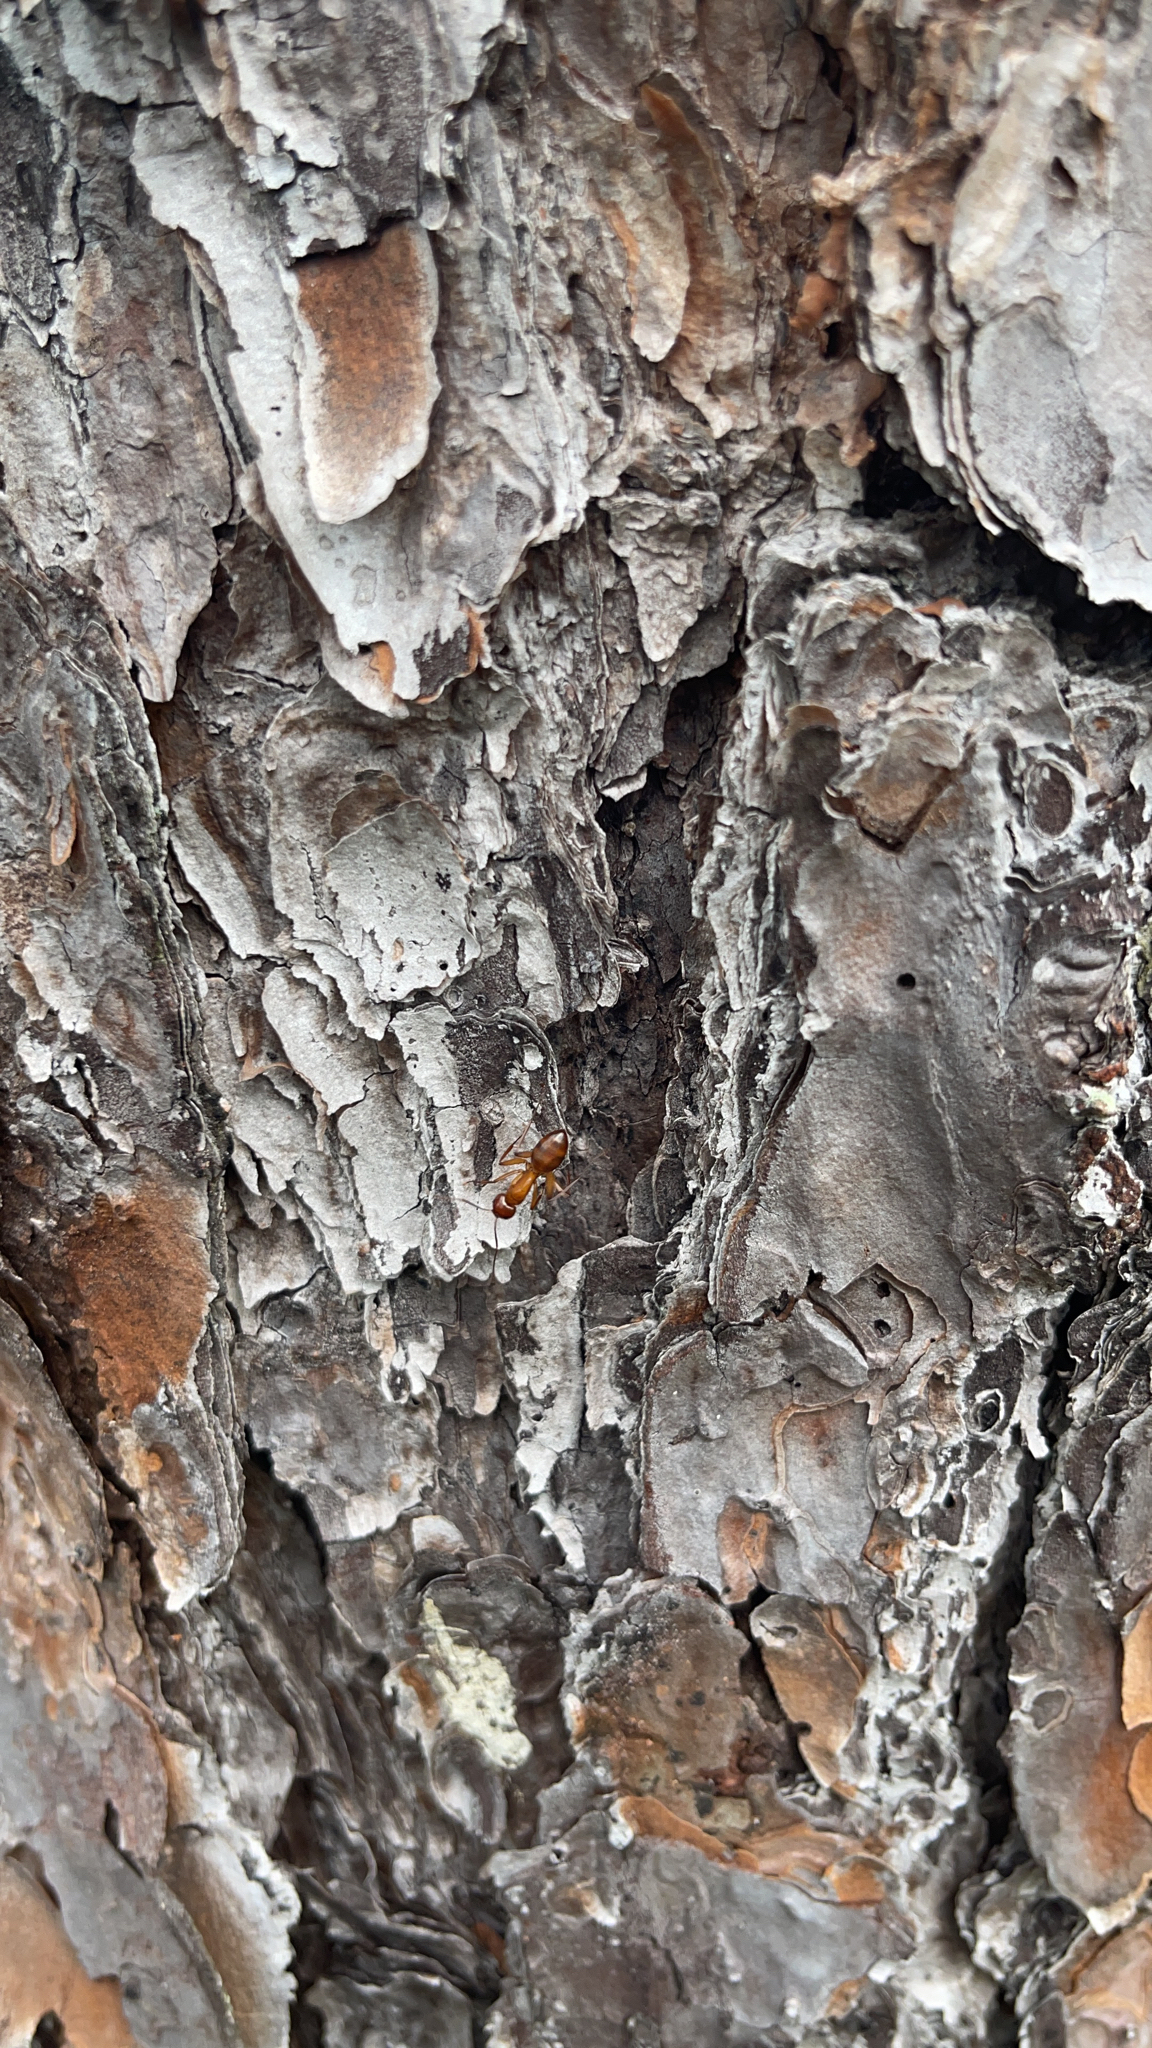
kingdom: Animalia
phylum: Arthropoda
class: Insecta
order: Hymenoptera
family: Formicidae
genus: Camponotus
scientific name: Camponotus castaneus
